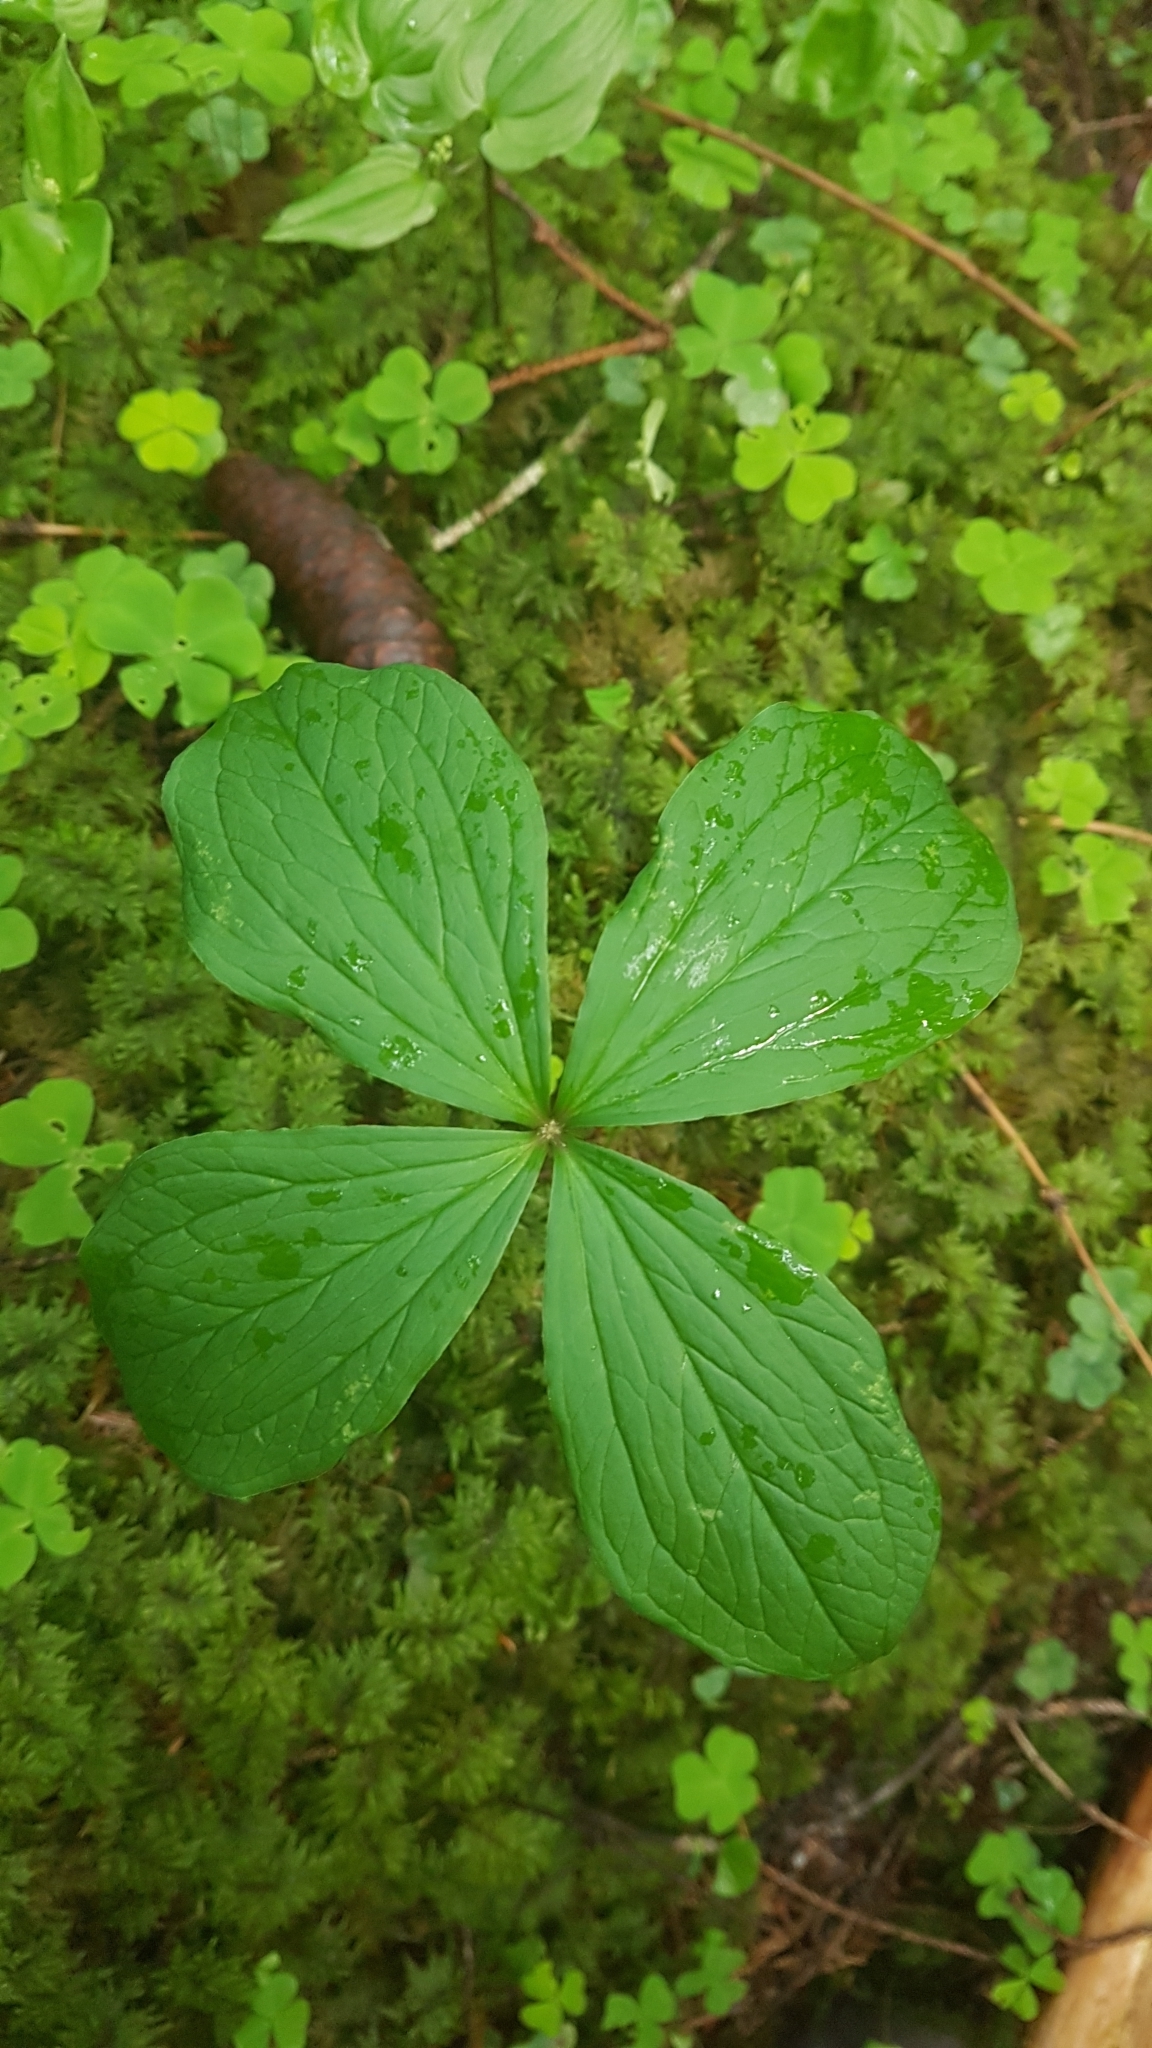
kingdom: Plantae
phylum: Tracheophyta
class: Liliopsida
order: Liliales
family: Melanthiaceae
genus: Paris
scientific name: Paris quadrifolia
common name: Herb-paris
